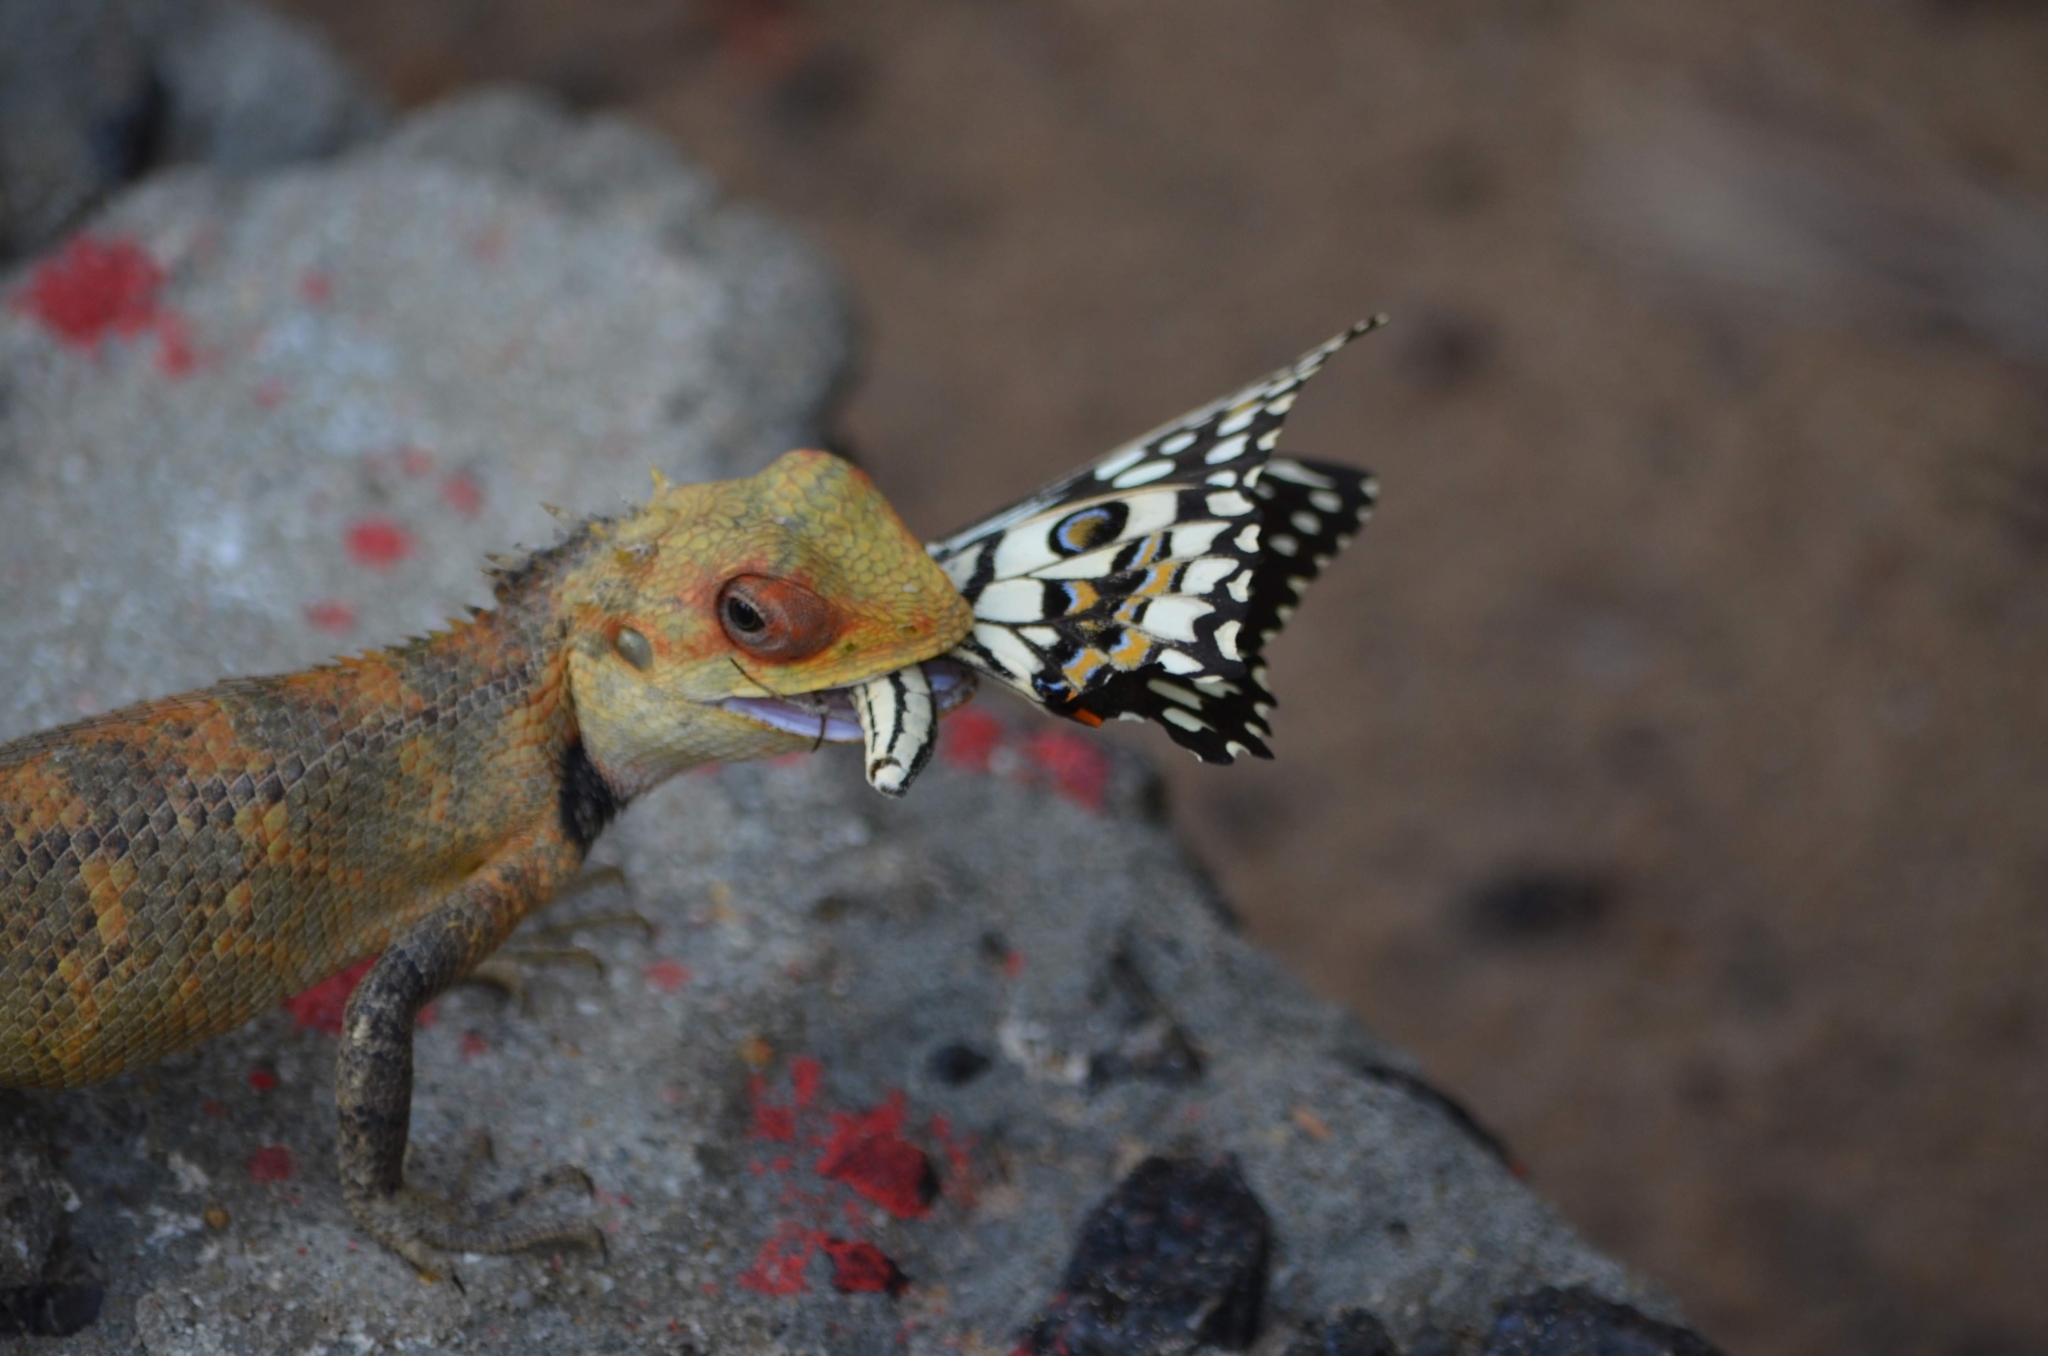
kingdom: Animalia
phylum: Chordata
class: Squamata
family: Agamidae
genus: Calotes
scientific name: Calotes versicolor
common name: Oriental garden lizard
